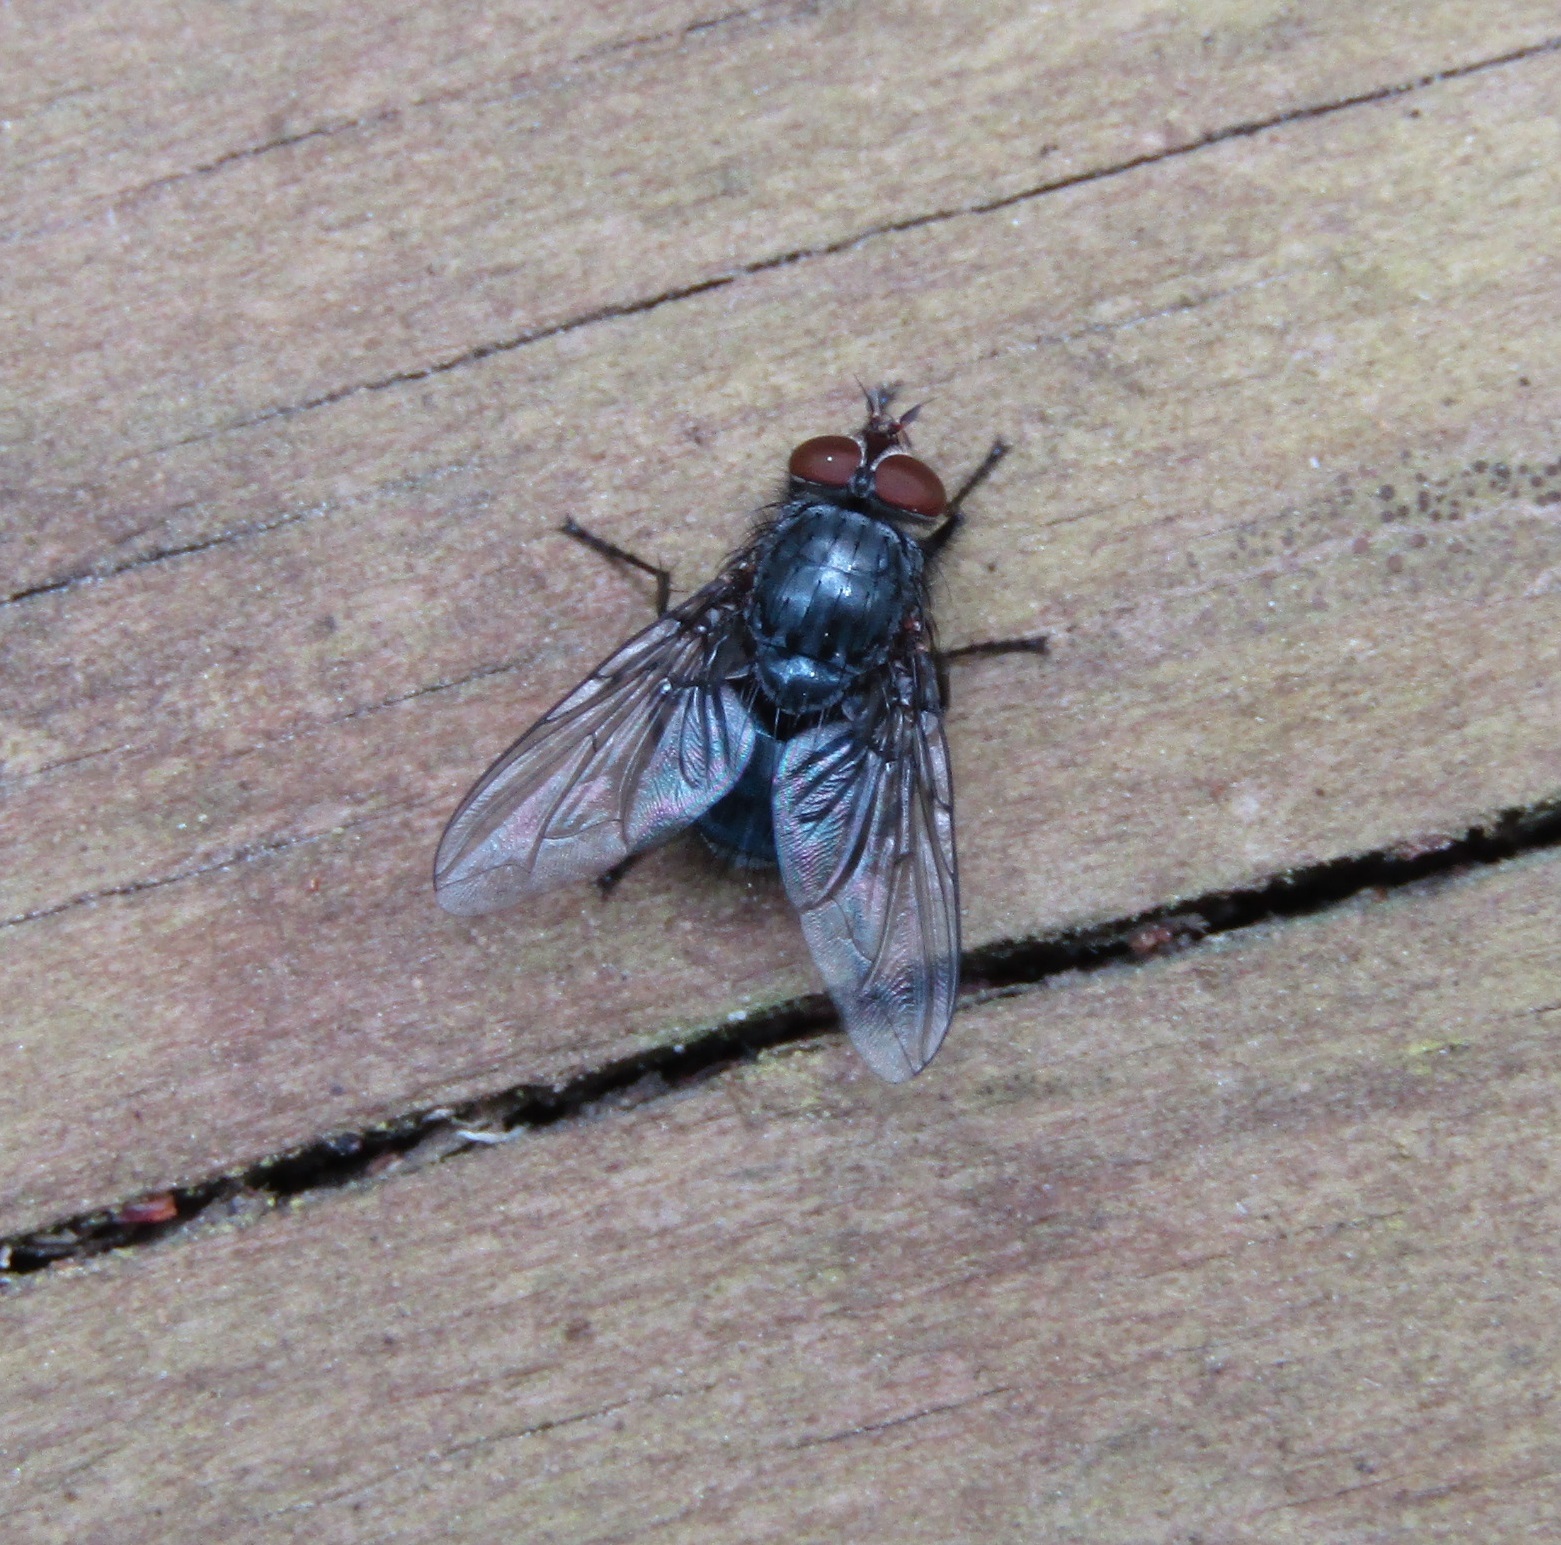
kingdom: Animalia
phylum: Arthropoda
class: Insecta
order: Diptera
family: Calliphoridae
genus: Calliphora
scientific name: Calliphora vicina
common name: Common blow flie
